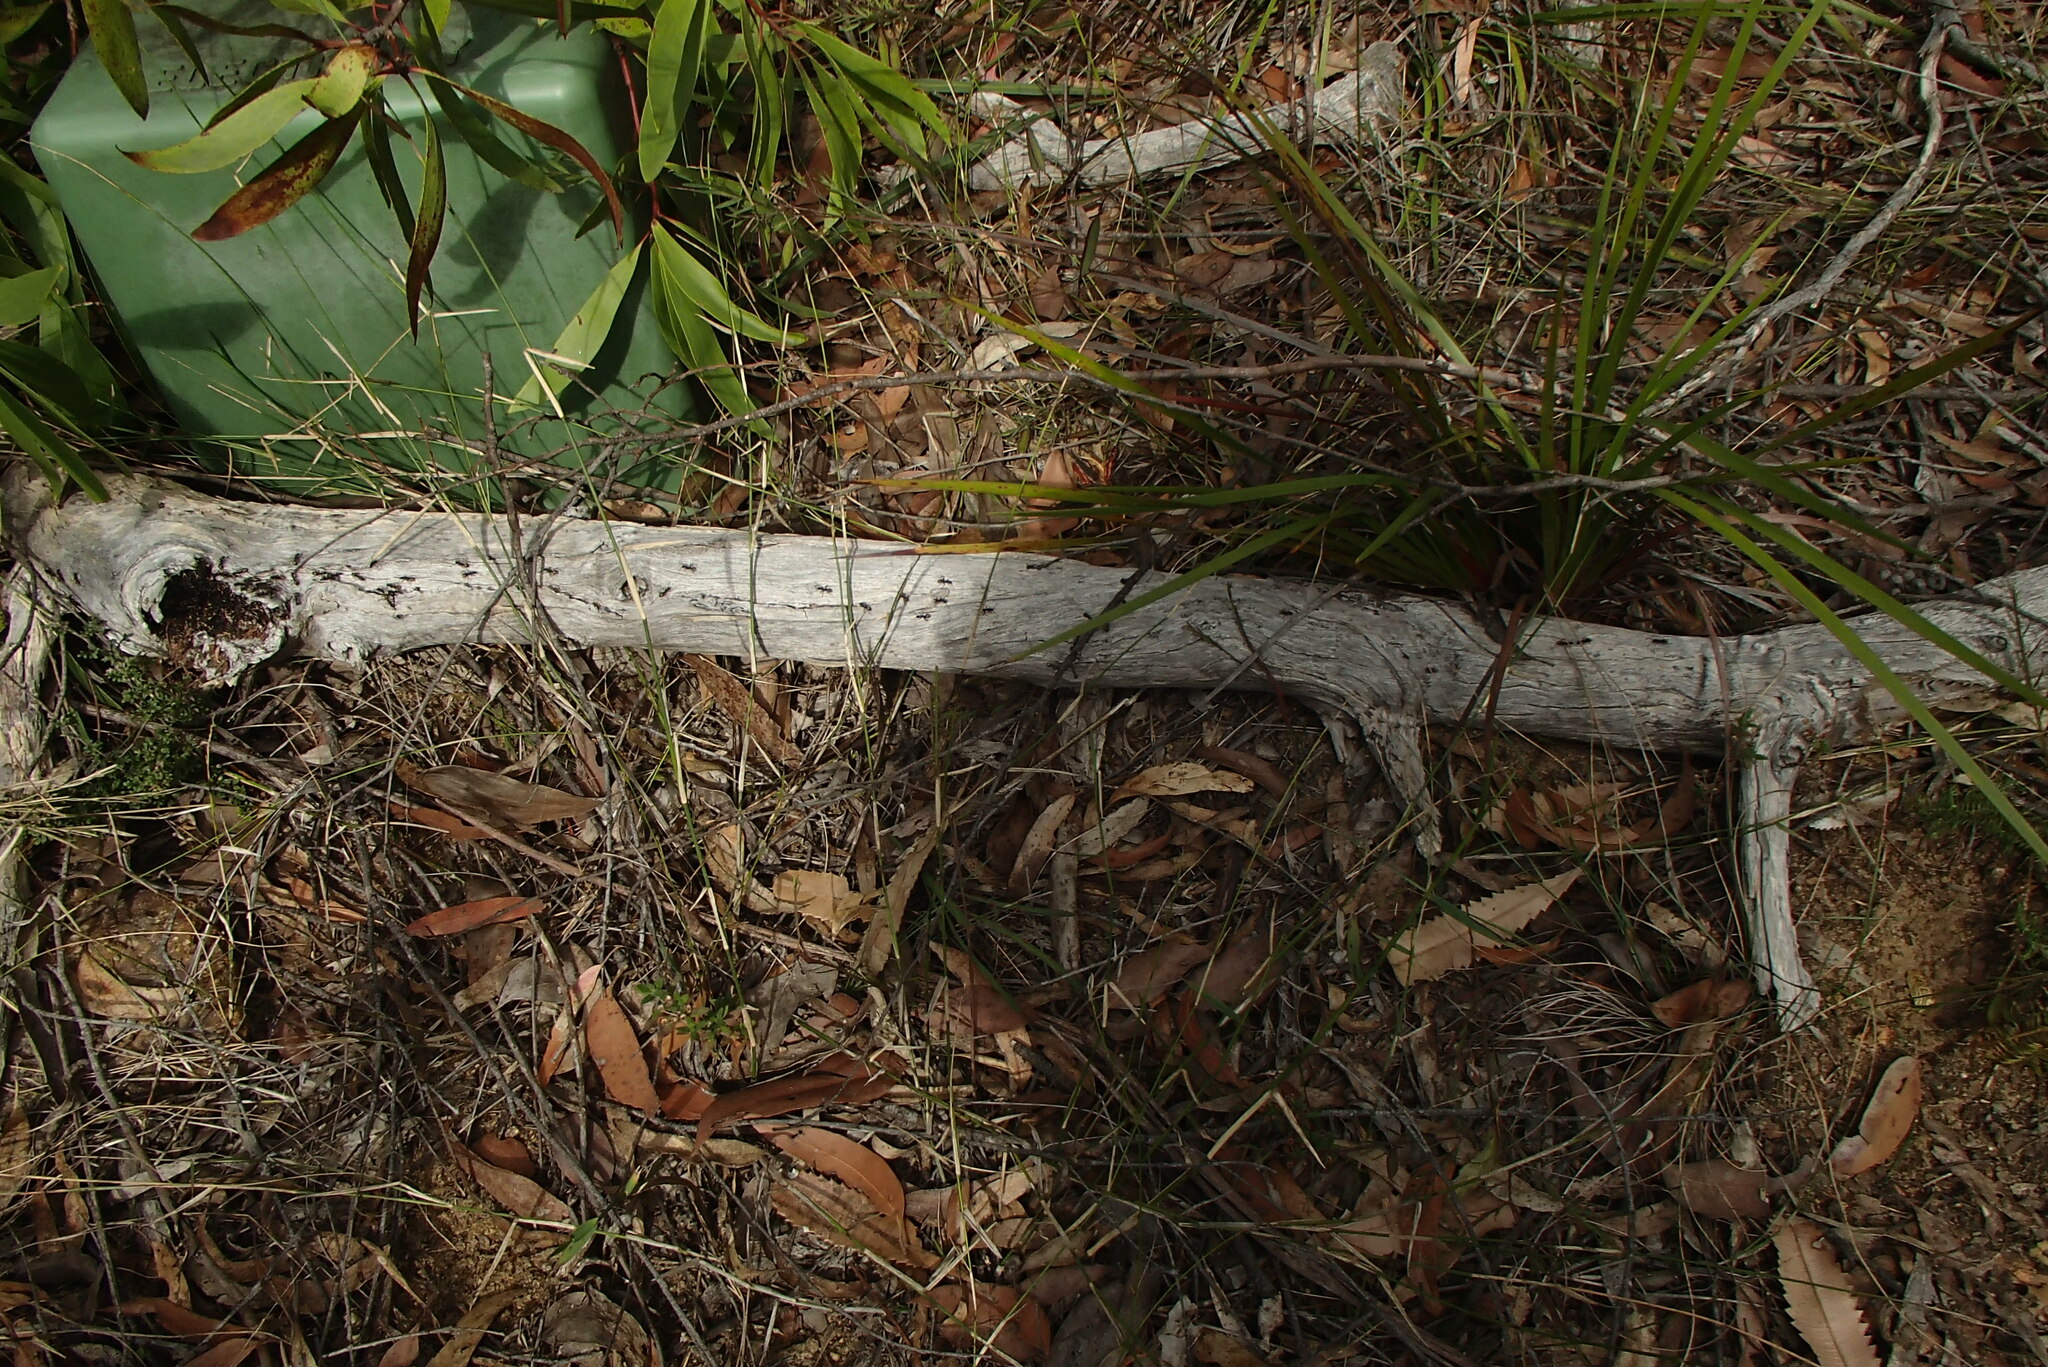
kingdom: Animalia
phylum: Arthropoda
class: Insecta
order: Hymenoptera
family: Formicidae
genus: Dolichoderus
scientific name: Dolichoderus doriae
